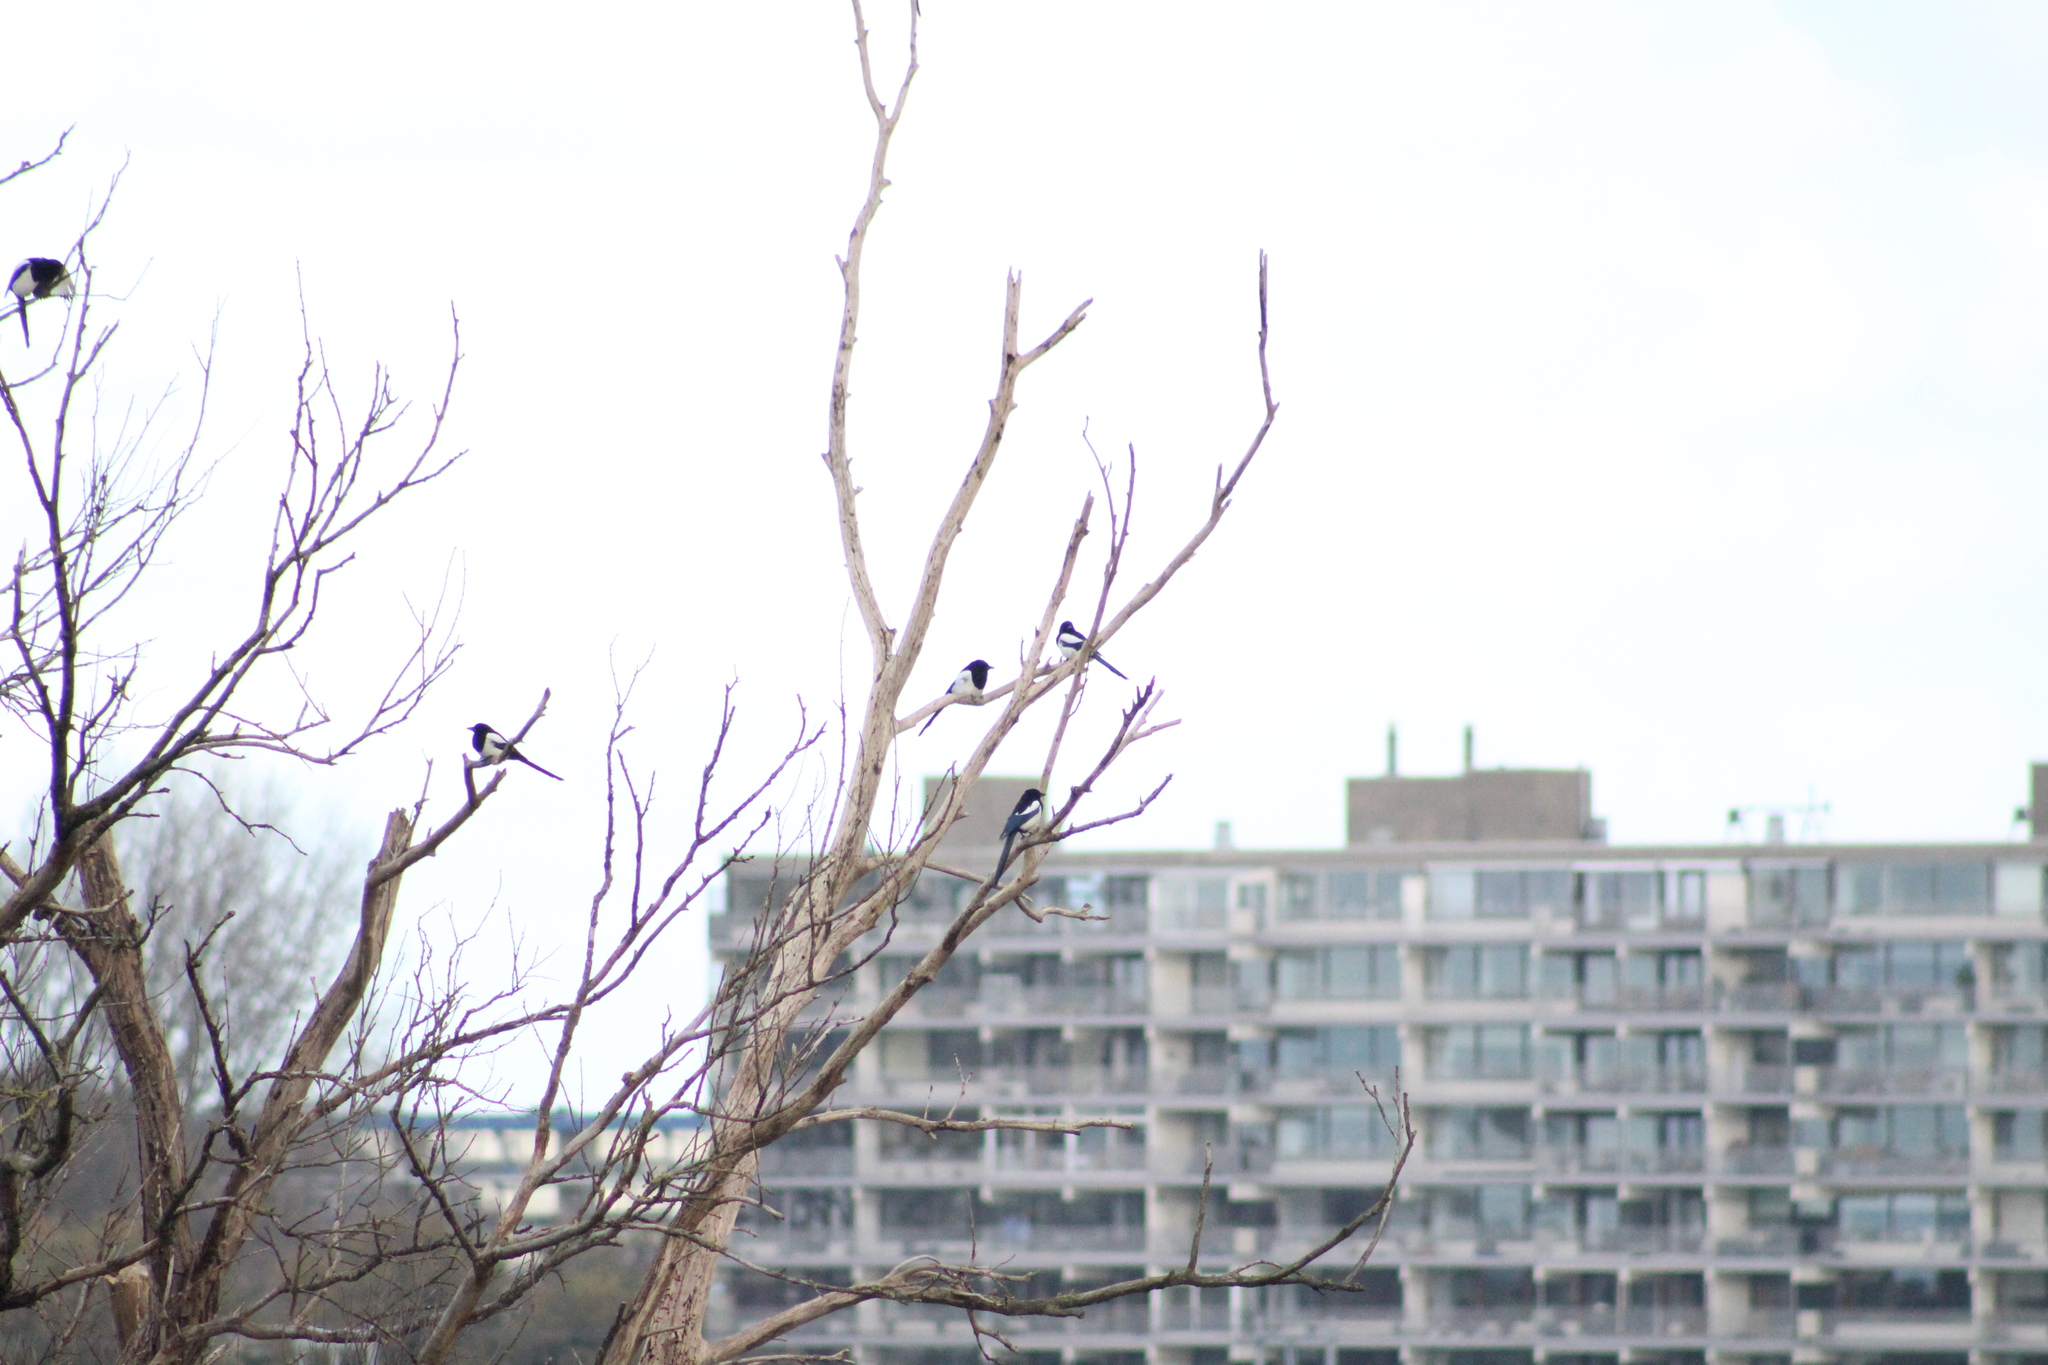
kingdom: Animalia
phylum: Chordata
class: Aves
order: Passeriformes
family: Corvidae
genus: Pica
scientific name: Pica pica
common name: Eurasian magpie
